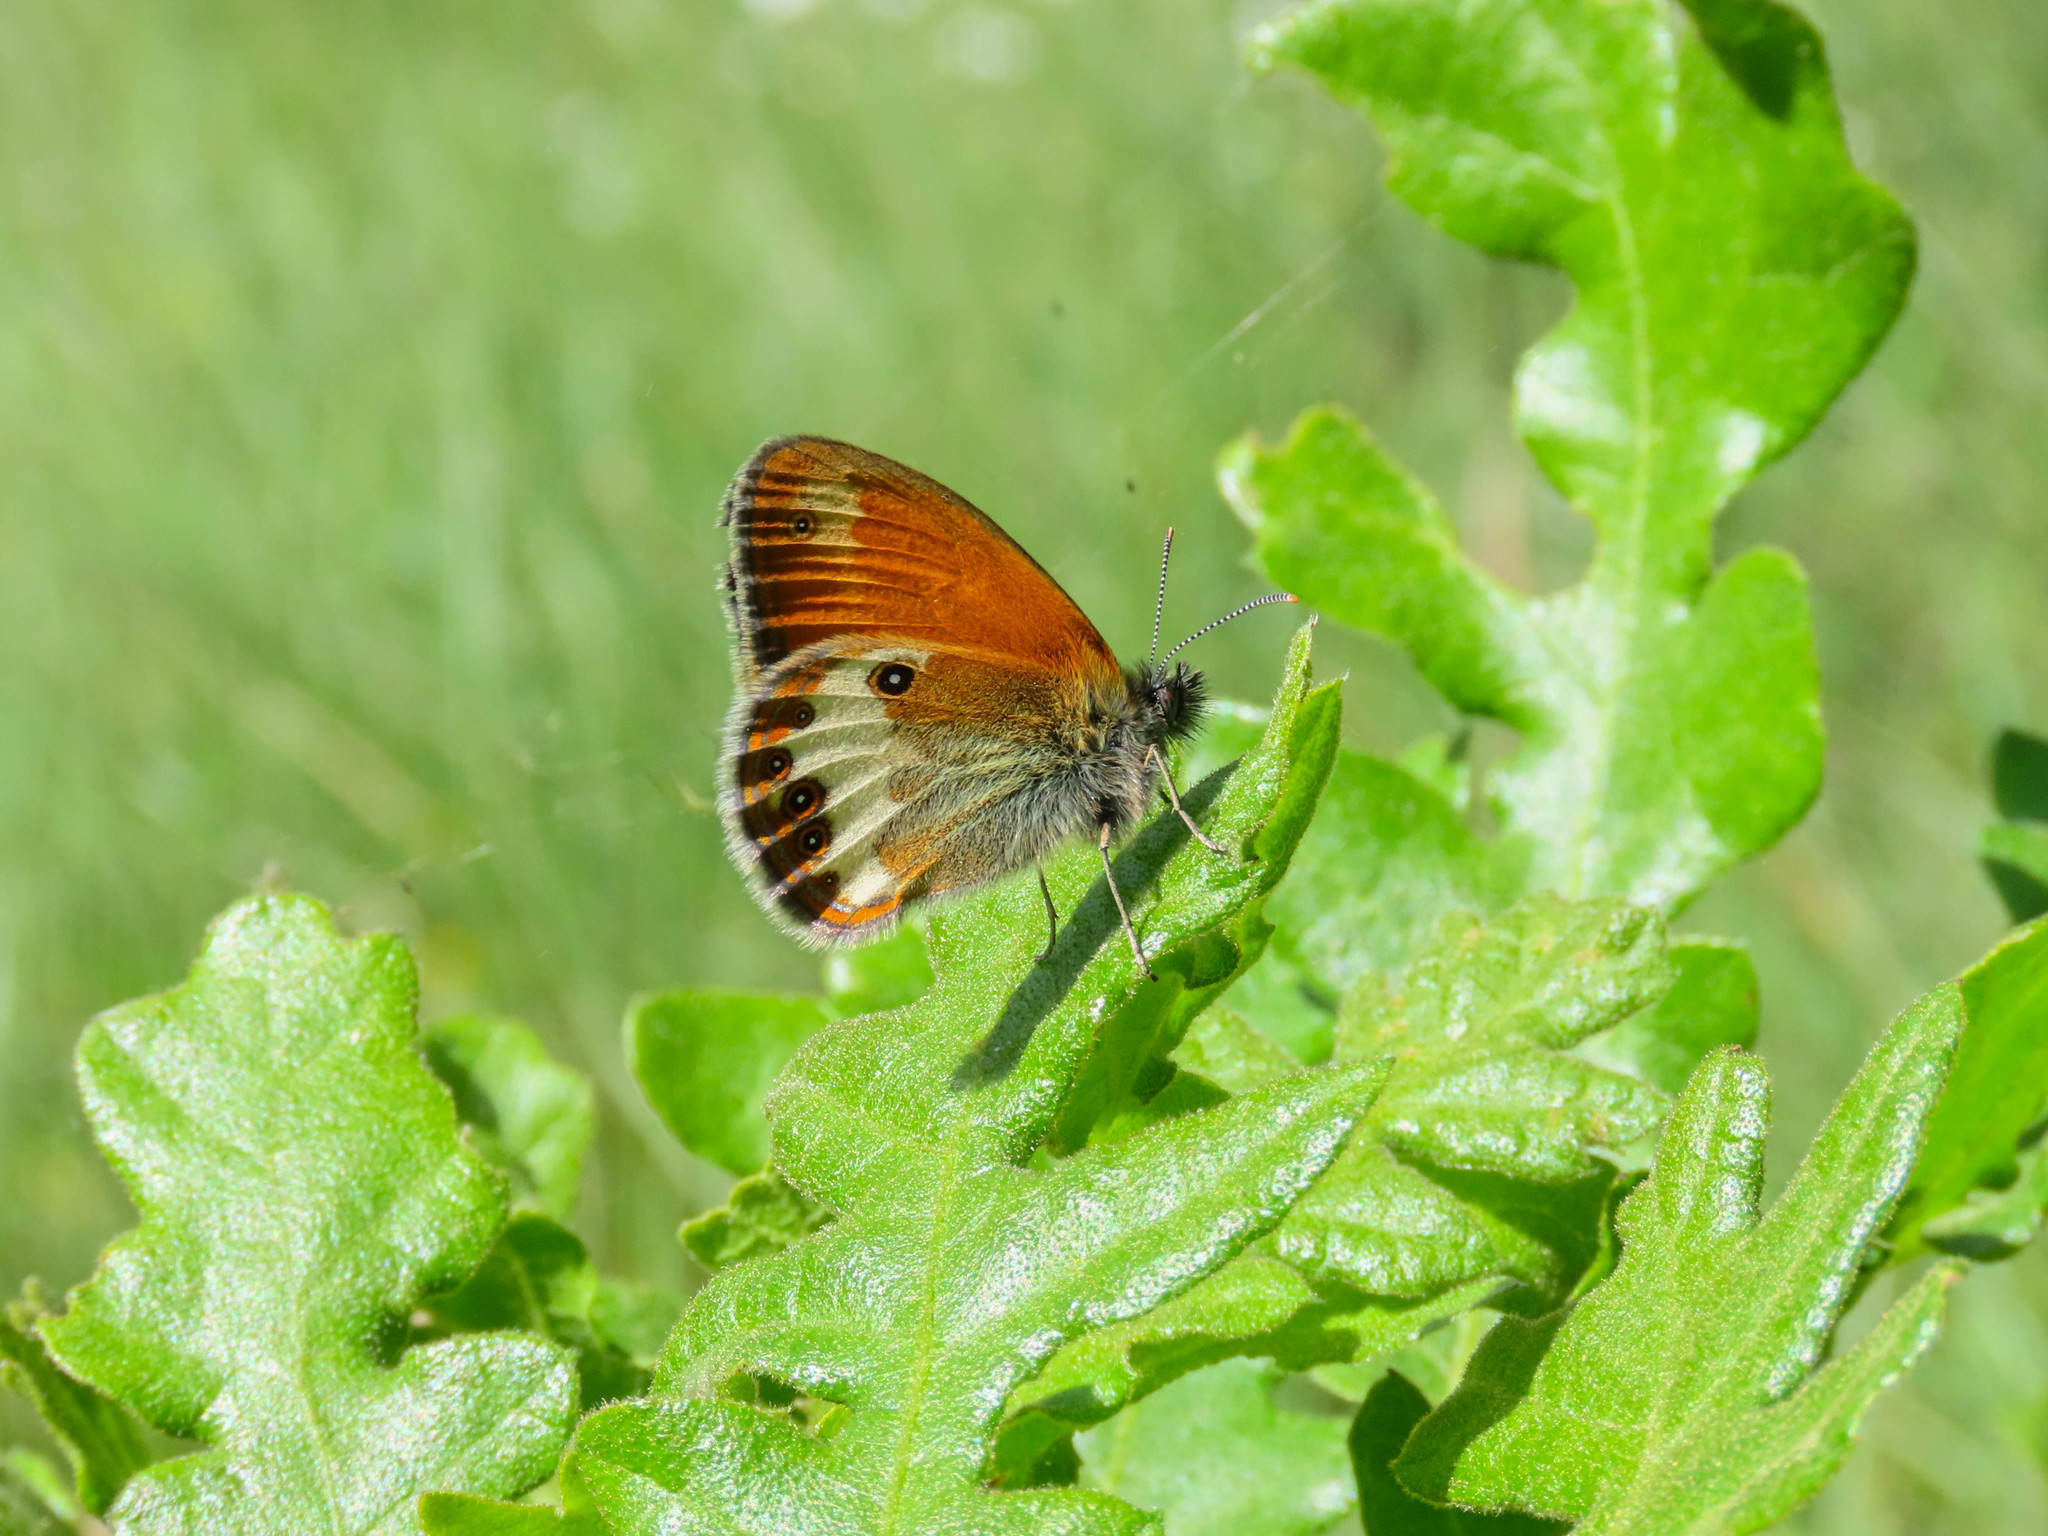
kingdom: Animalia
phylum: Arthropoda
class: Insecta
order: Lepidoptera
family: Nymphalidae
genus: Coenonympha
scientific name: Coenonympha arcania
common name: Pearly heath
